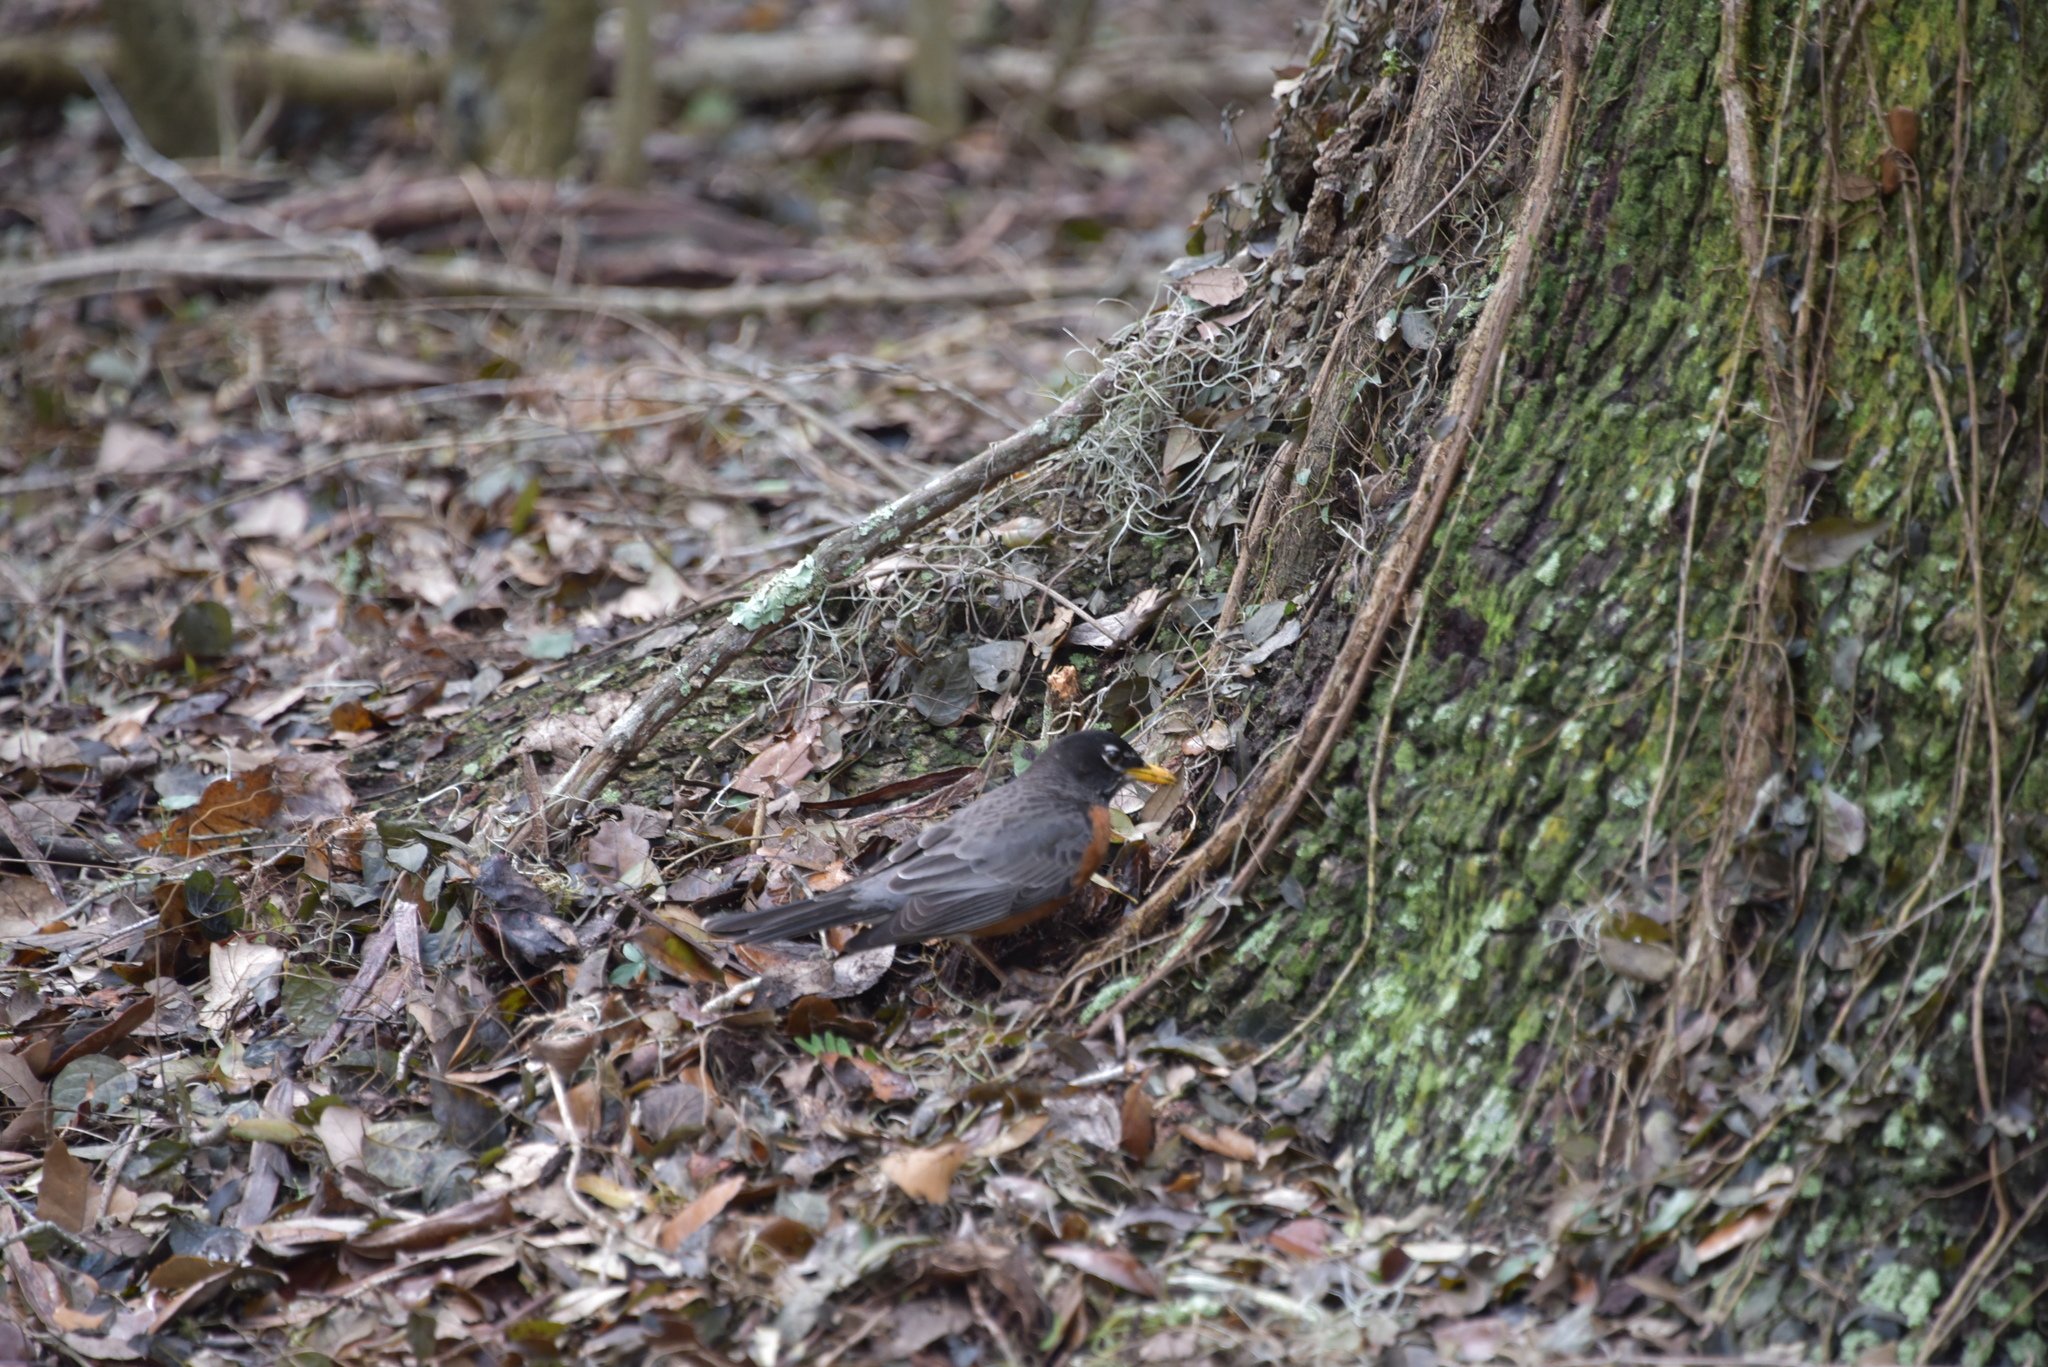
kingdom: Animalia
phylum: Chordata
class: Aves
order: Passeriformes
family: Turdidae
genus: Turdus
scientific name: Turdus migratorius
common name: American robin
